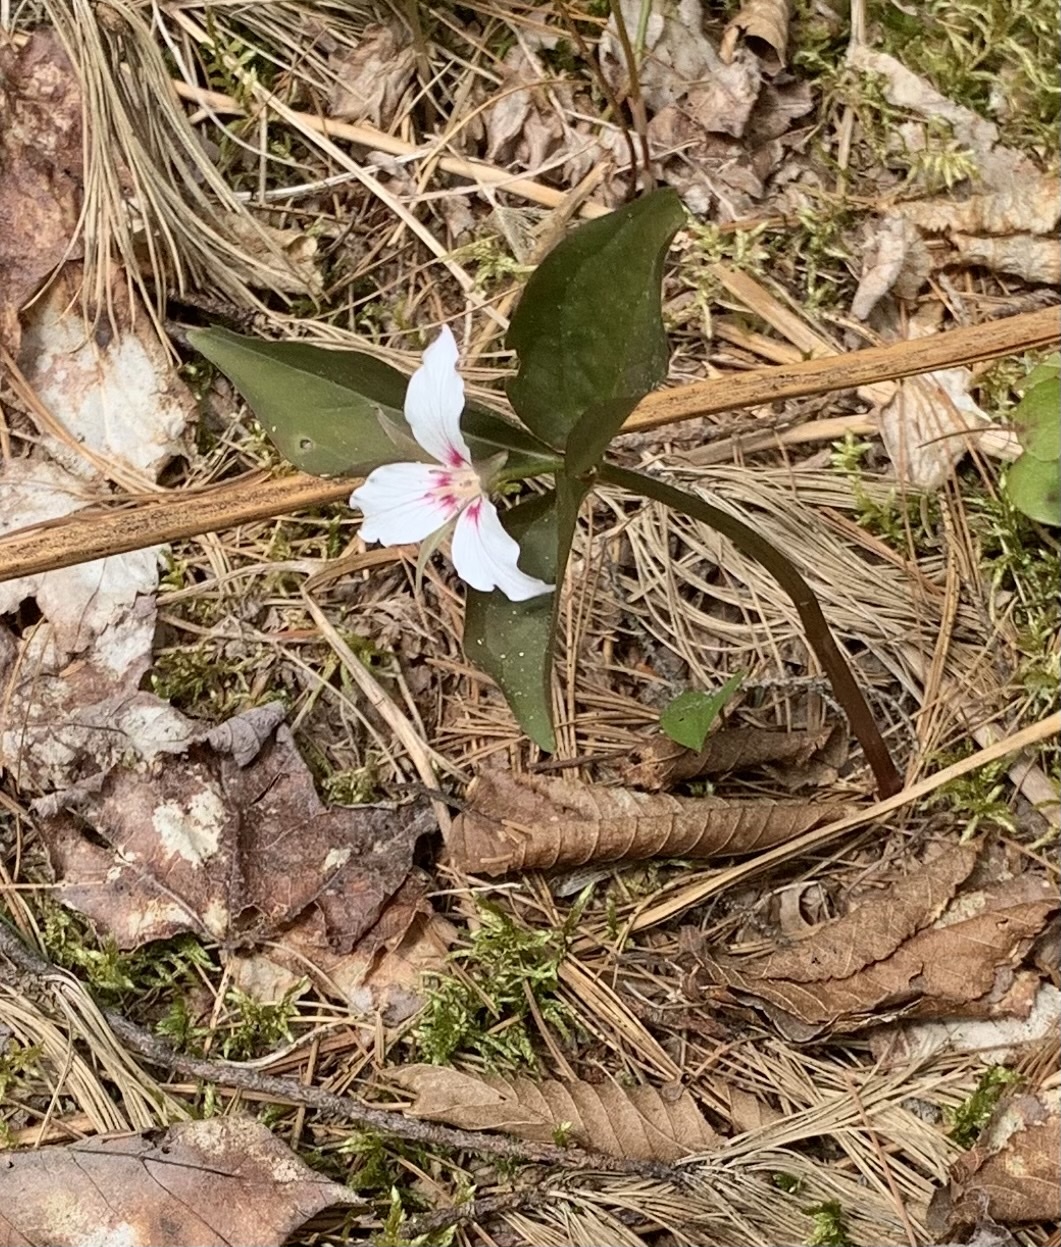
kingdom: Plantae
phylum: Tracheophyta
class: Liliopsida
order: Liliales
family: Melanthiaceae
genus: Trillium
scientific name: Trillium undulatum
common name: Paint trillium
